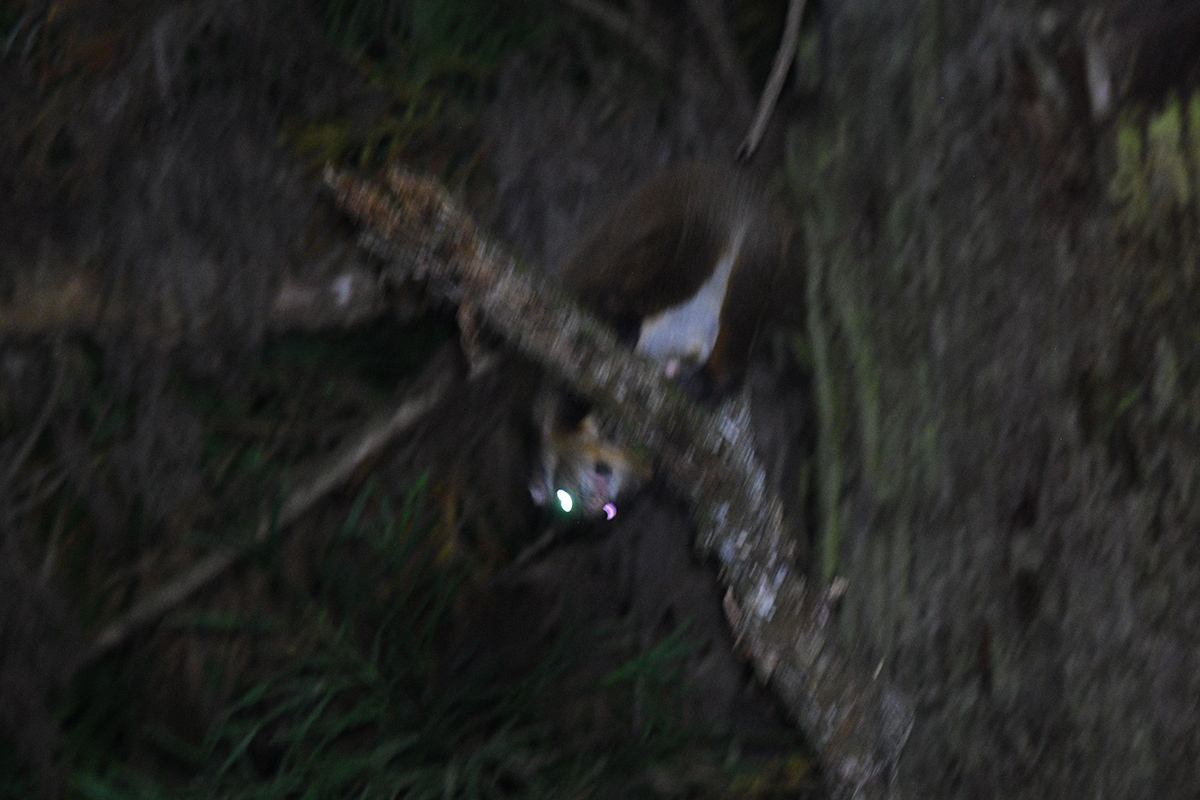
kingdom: Animalia
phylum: Chordata
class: Mammalia
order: Rodentia
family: Sciuridae
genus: Petaurista
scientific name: Petaurista leucogenys
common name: Japanese giant flying squirrel
